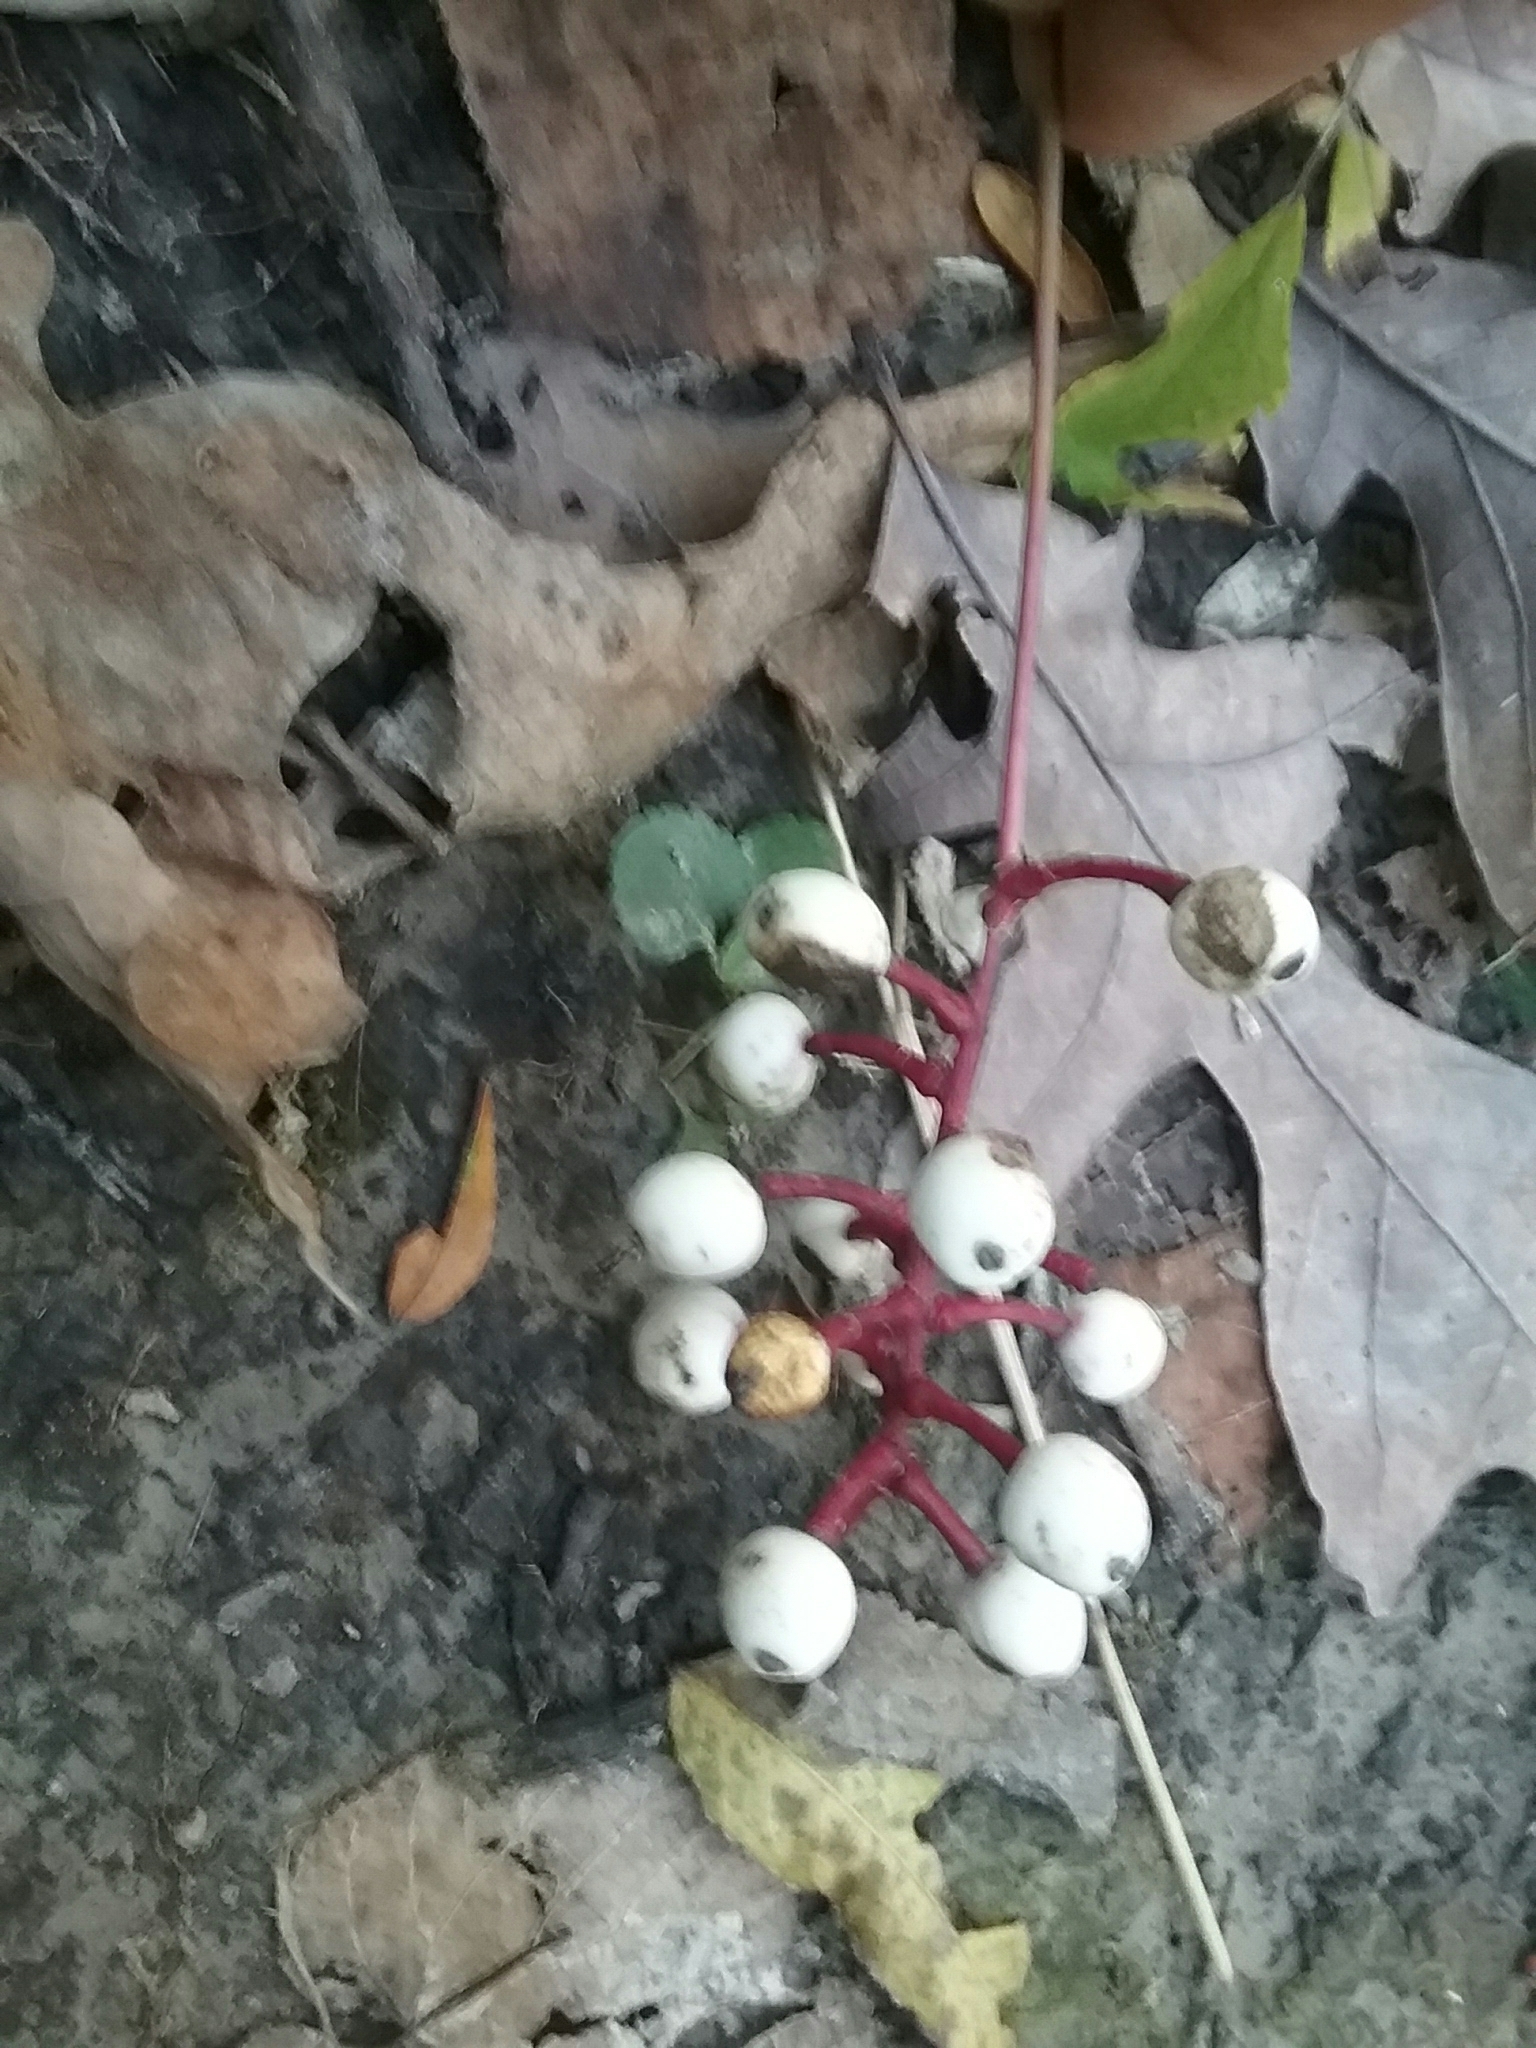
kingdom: Plantae
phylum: Tracheophyta
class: Magnoliopsida
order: Ranunculales
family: Ranunculaceae
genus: Actaea
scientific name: Actaea pachypoda
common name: Doll's-eyes
